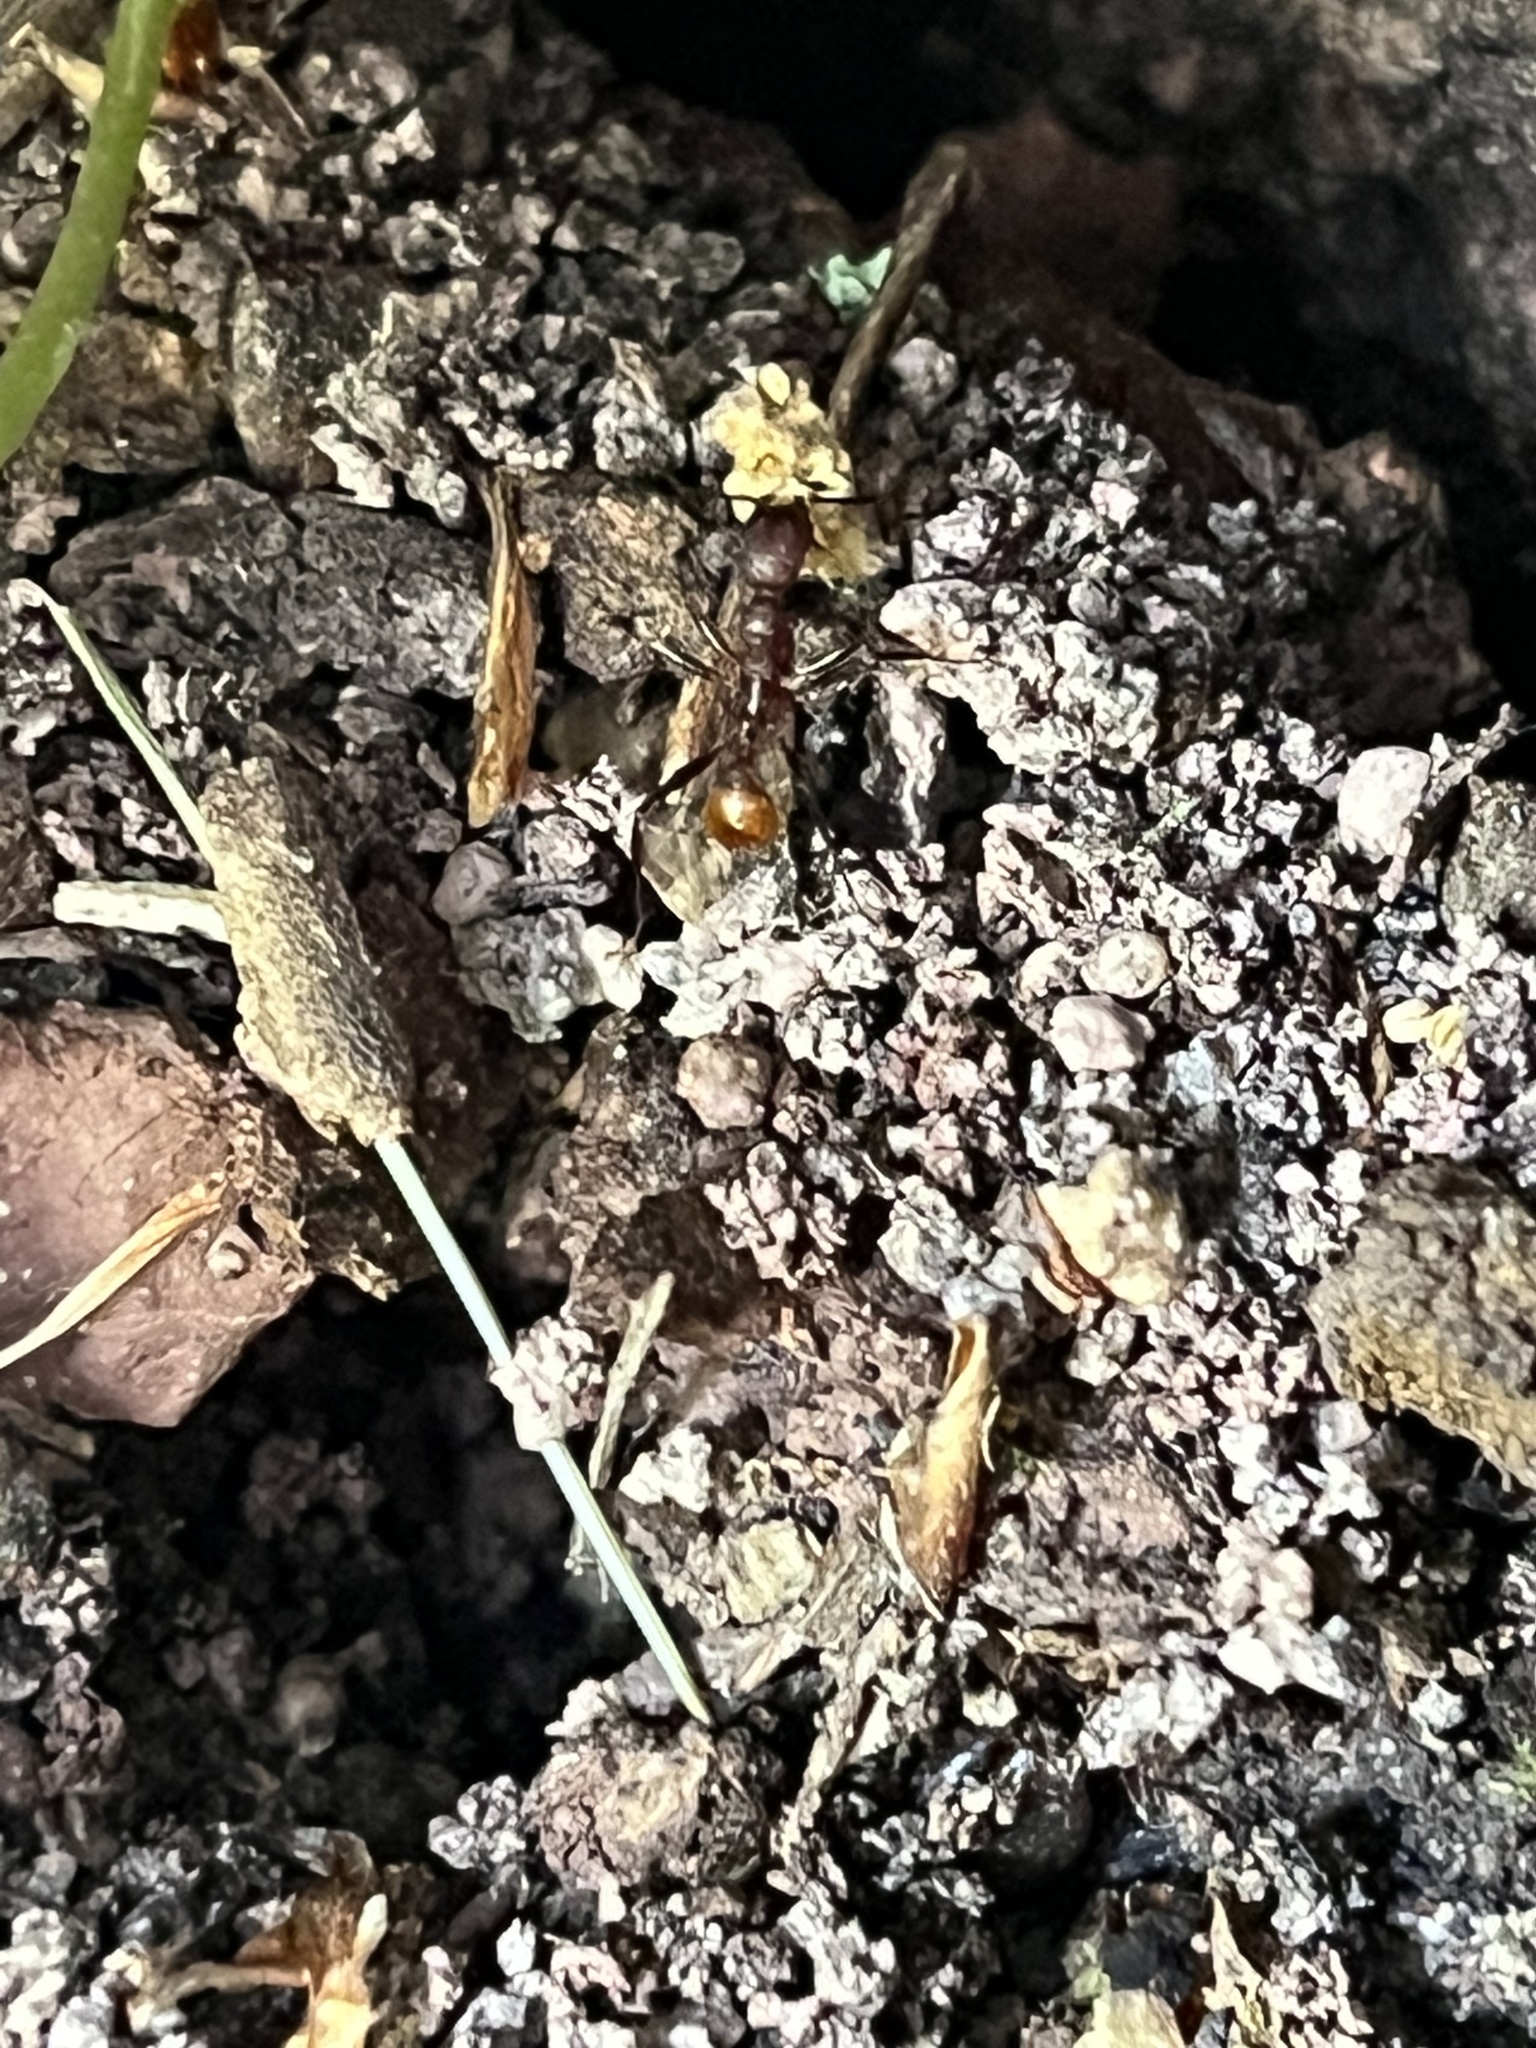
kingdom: Animalia
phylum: Arthropoda
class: Insecta
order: Hymenoptera
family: Formicidae
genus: Aphaenogaster
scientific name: Aphaenogaster lamellidens
